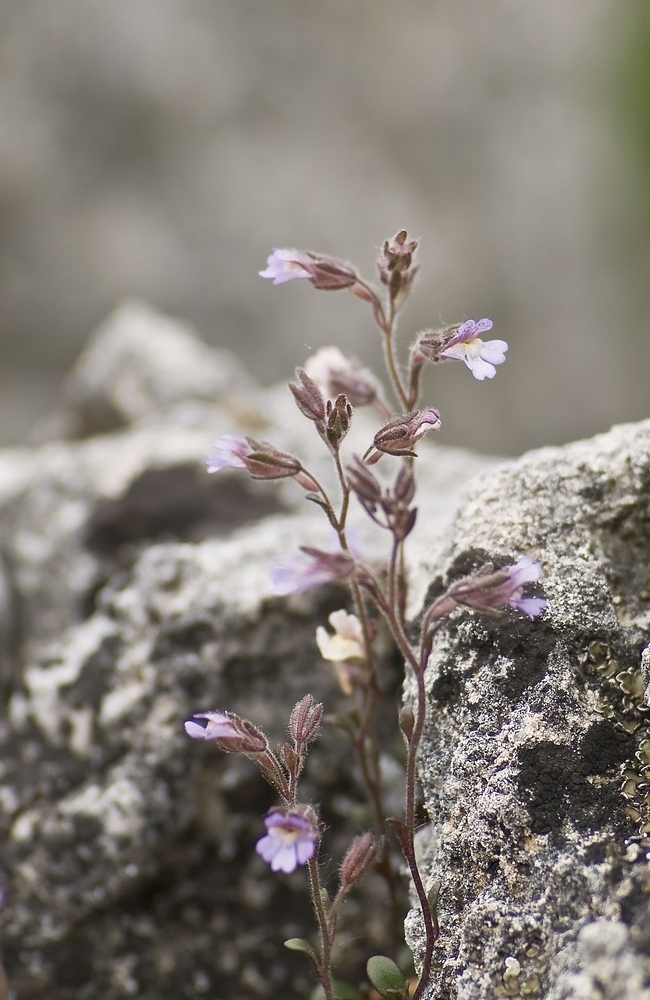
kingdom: Plantae
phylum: Tracheophyta
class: Magnoliopsida
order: Lamiales
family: Plantaginaceae
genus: Chaenorhinum
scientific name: Chaenorhinum origanifolium
